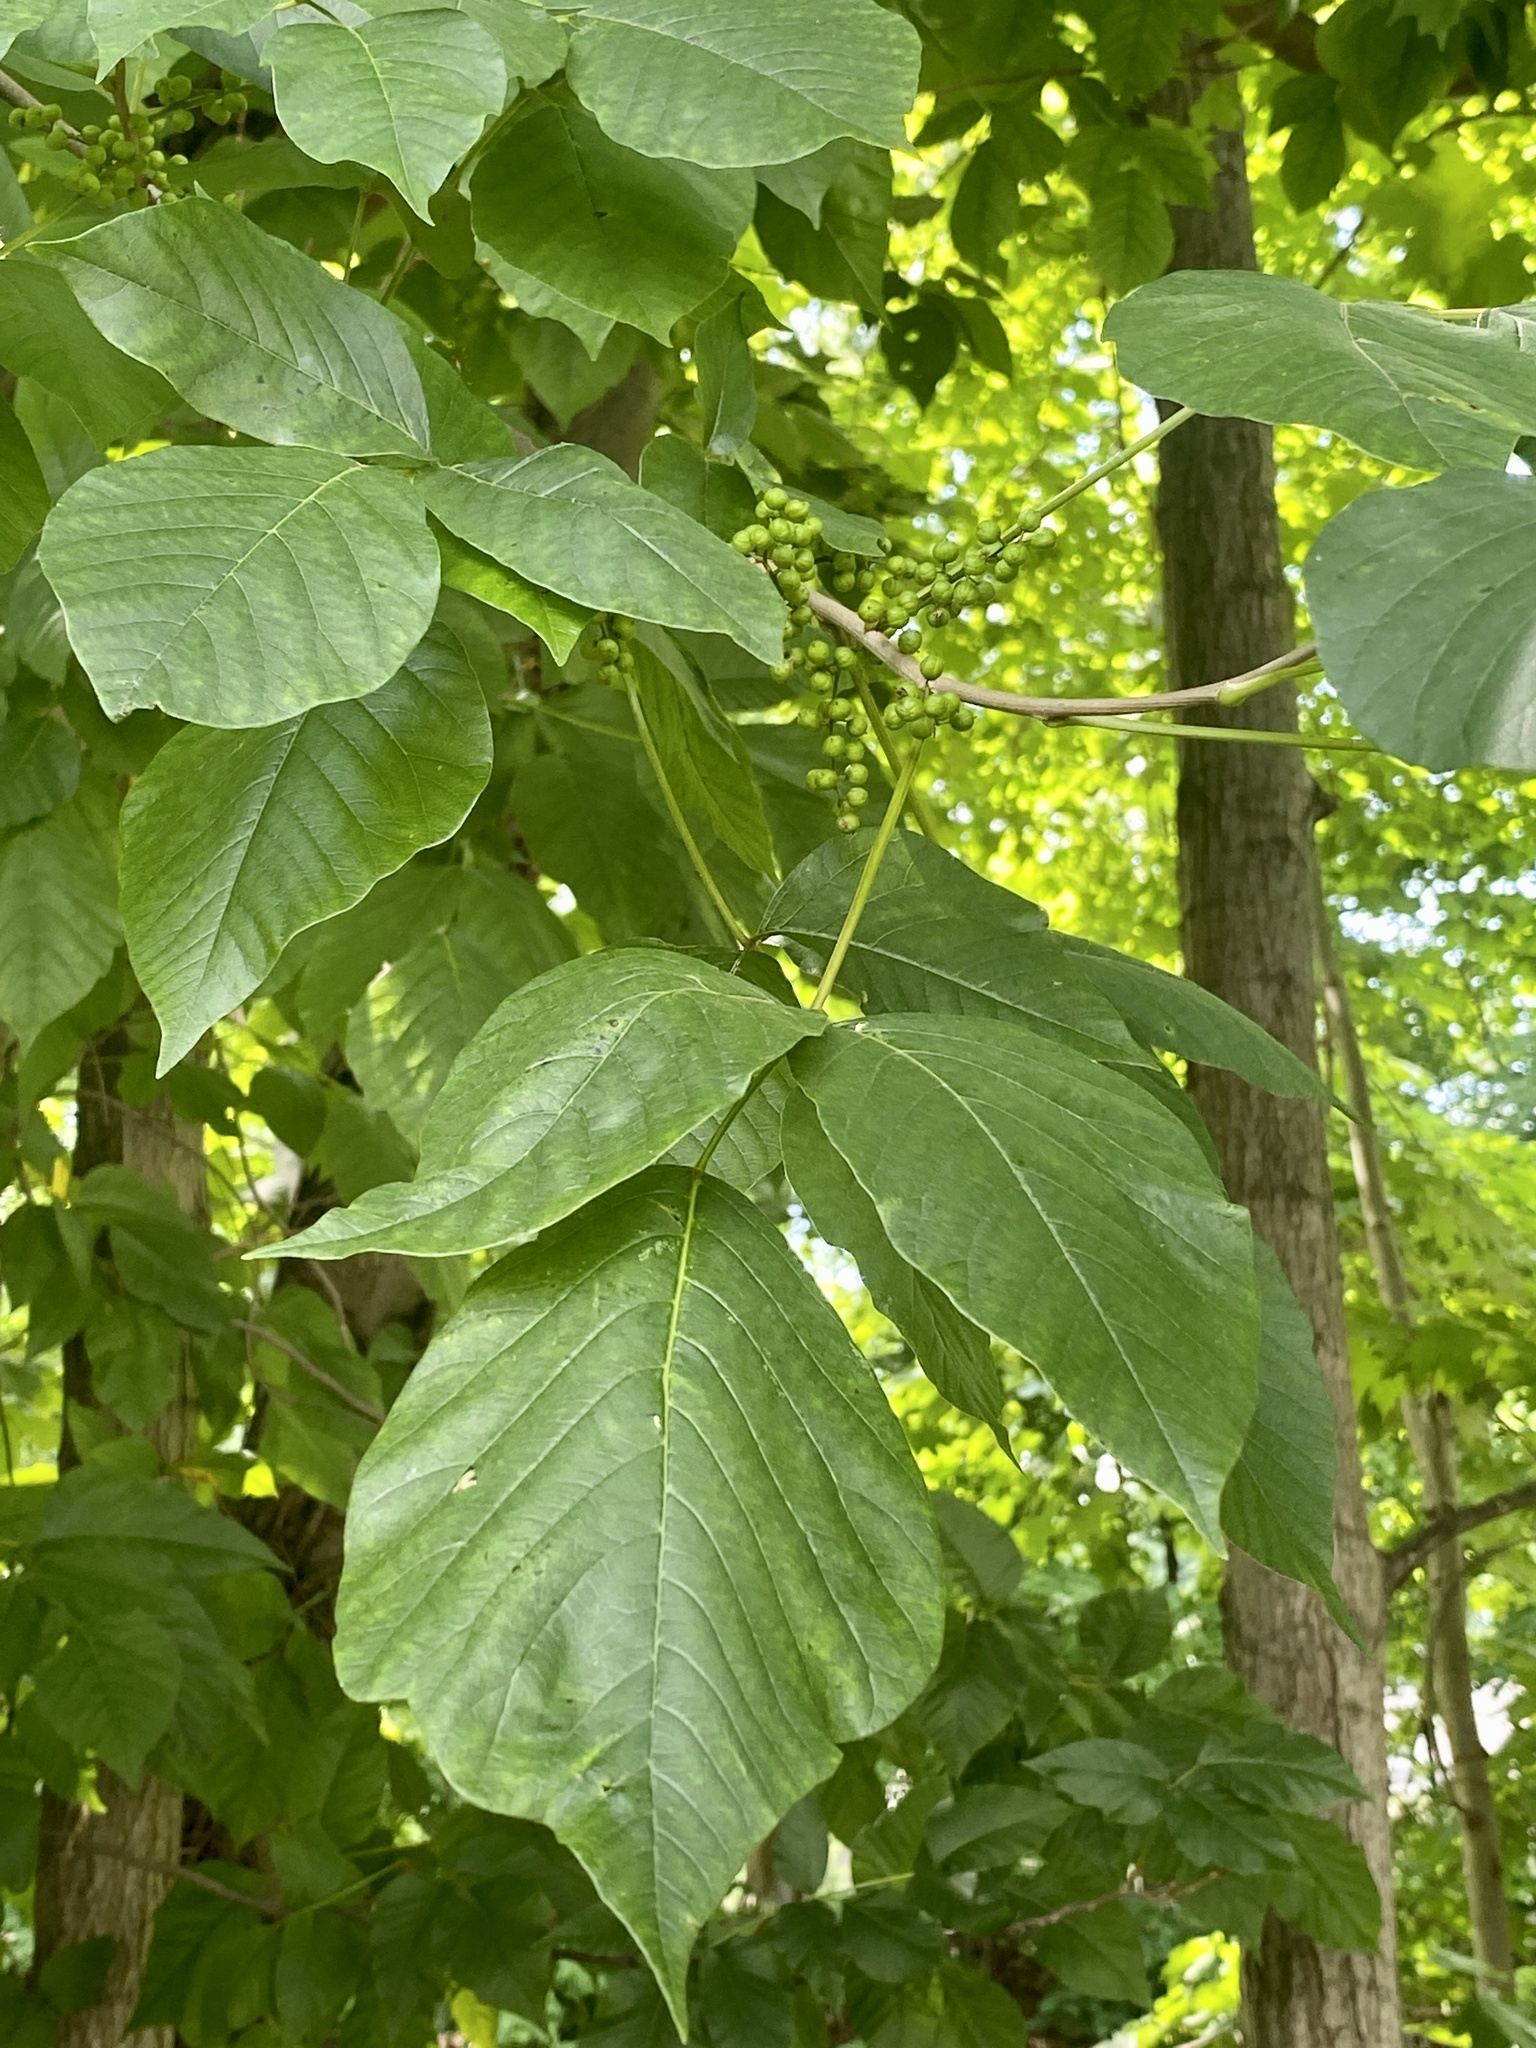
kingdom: Plantae
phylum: Tracheophyta
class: Magnoliopsida
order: Sapindales
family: Anacardiaceae
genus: Toxicodendron
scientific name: Toxicodendron radicans
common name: Poison ivy
